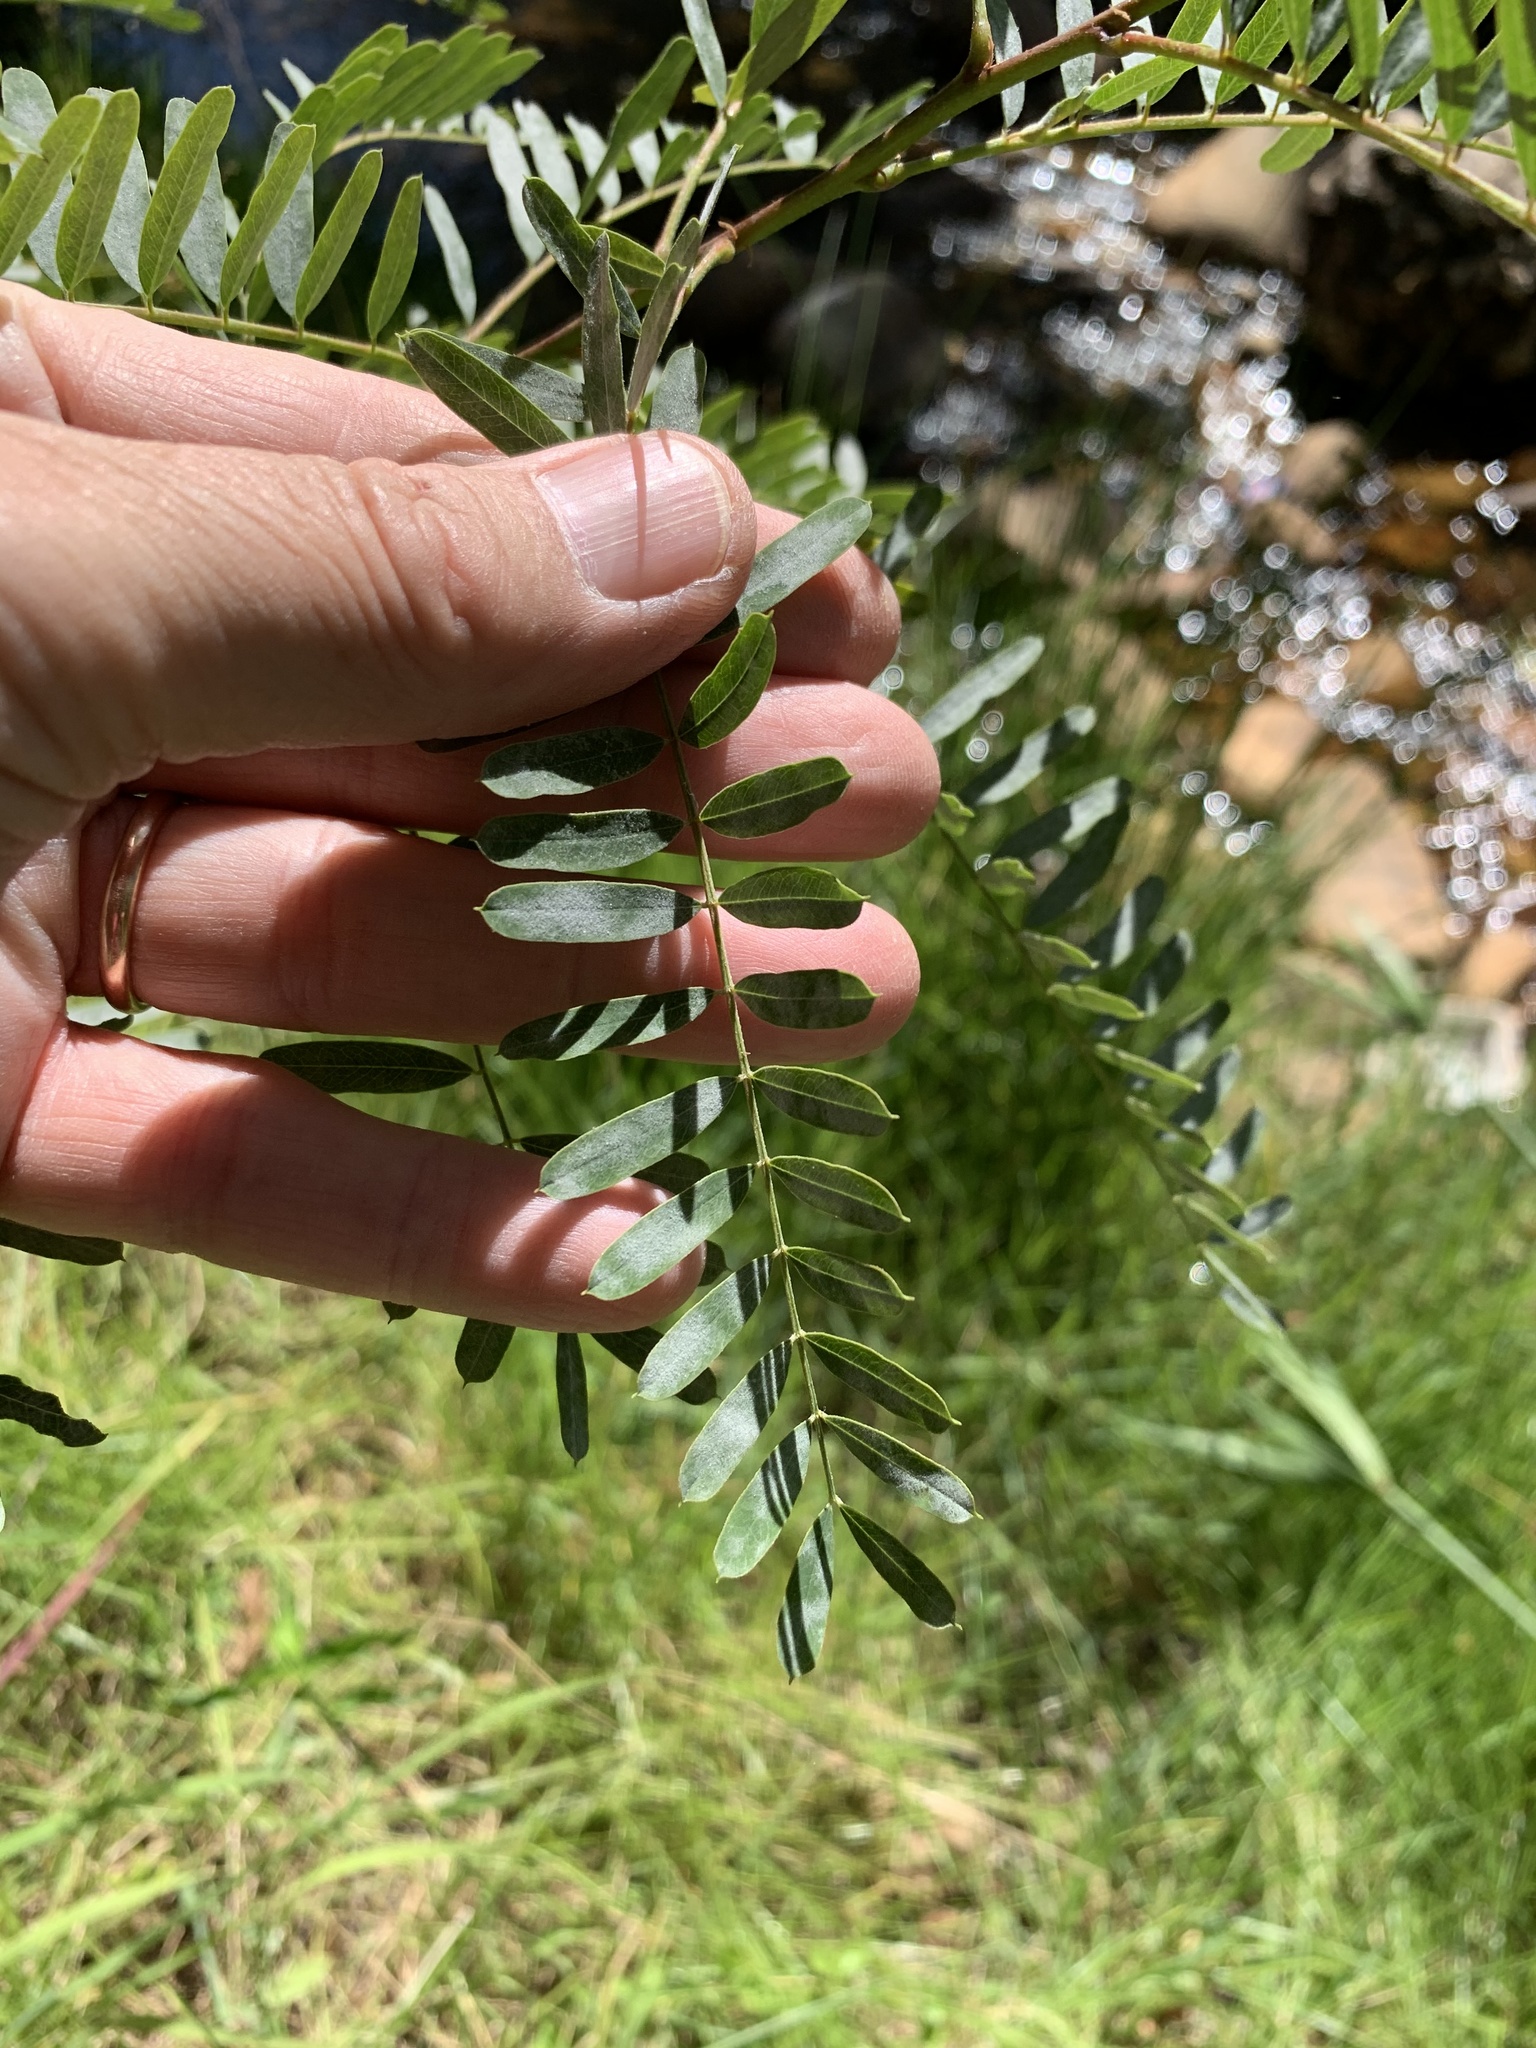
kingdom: Plantae
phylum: Tracheophyta
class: Magnoliopsida
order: Fabales
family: Fabaceae
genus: Sesbania
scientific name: Sesbania punicea
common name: Rattlebox
